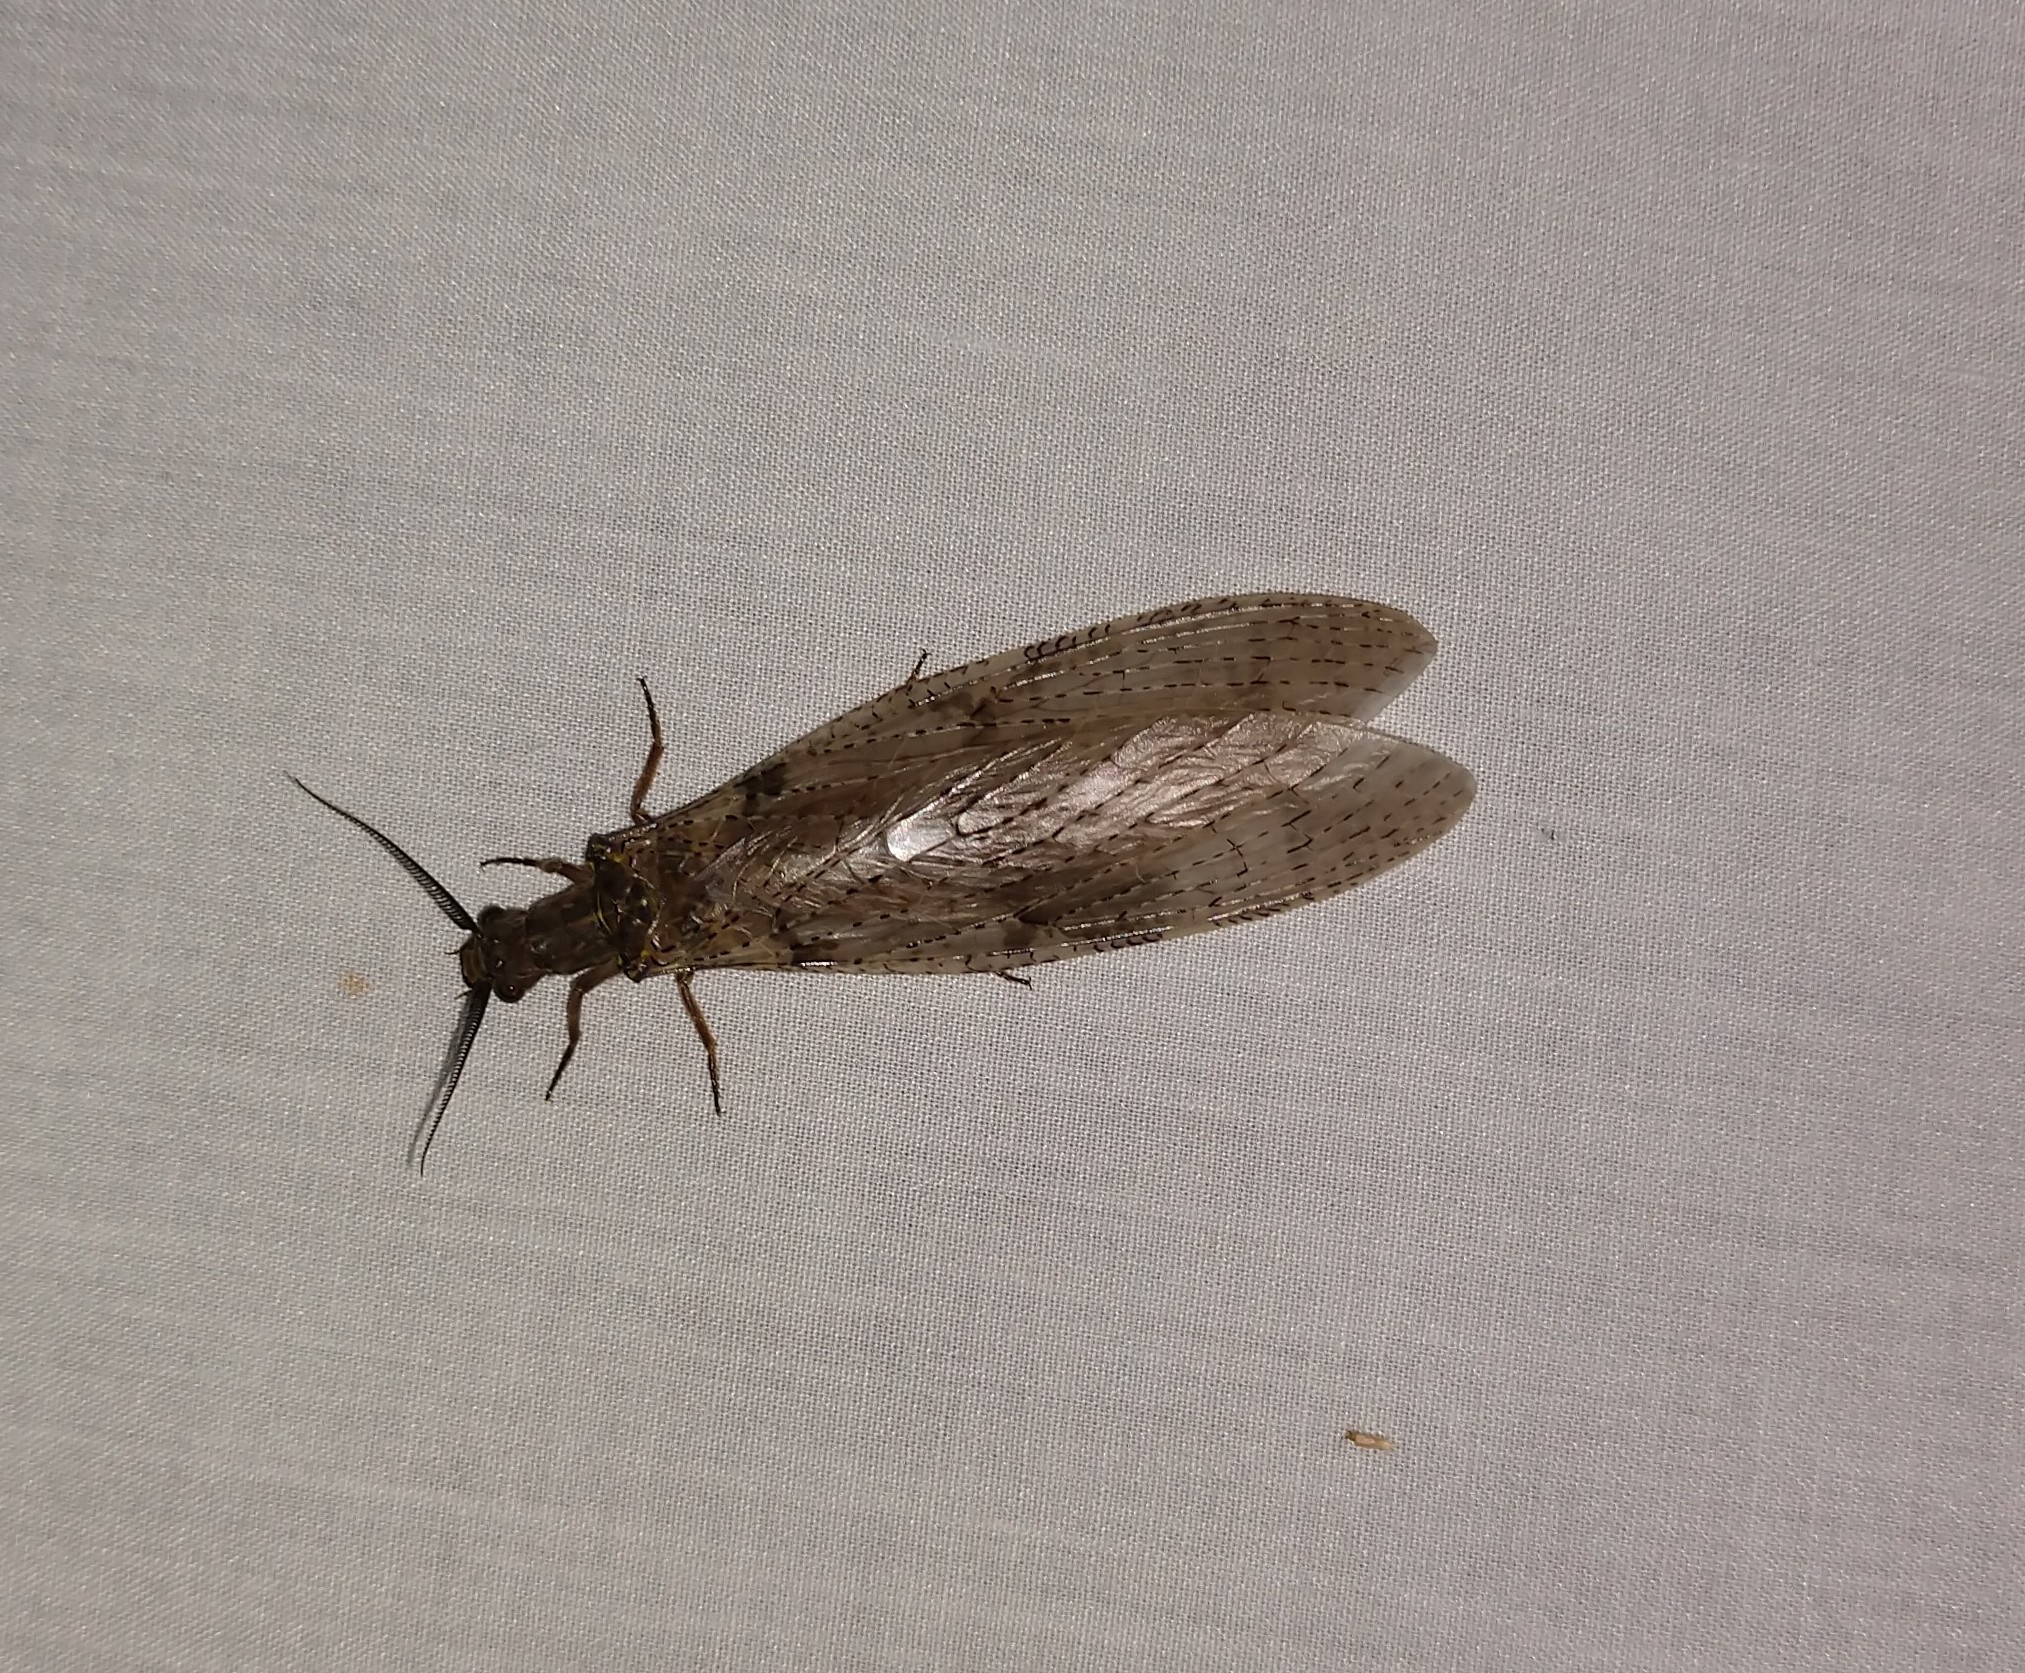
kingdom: Animalia
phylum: Arthropoda
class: Insecta
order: Megaloptera
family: Corydalidae
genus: Chauliodes
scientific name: Chauliodes pectinicornis
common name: Summer fishfly
